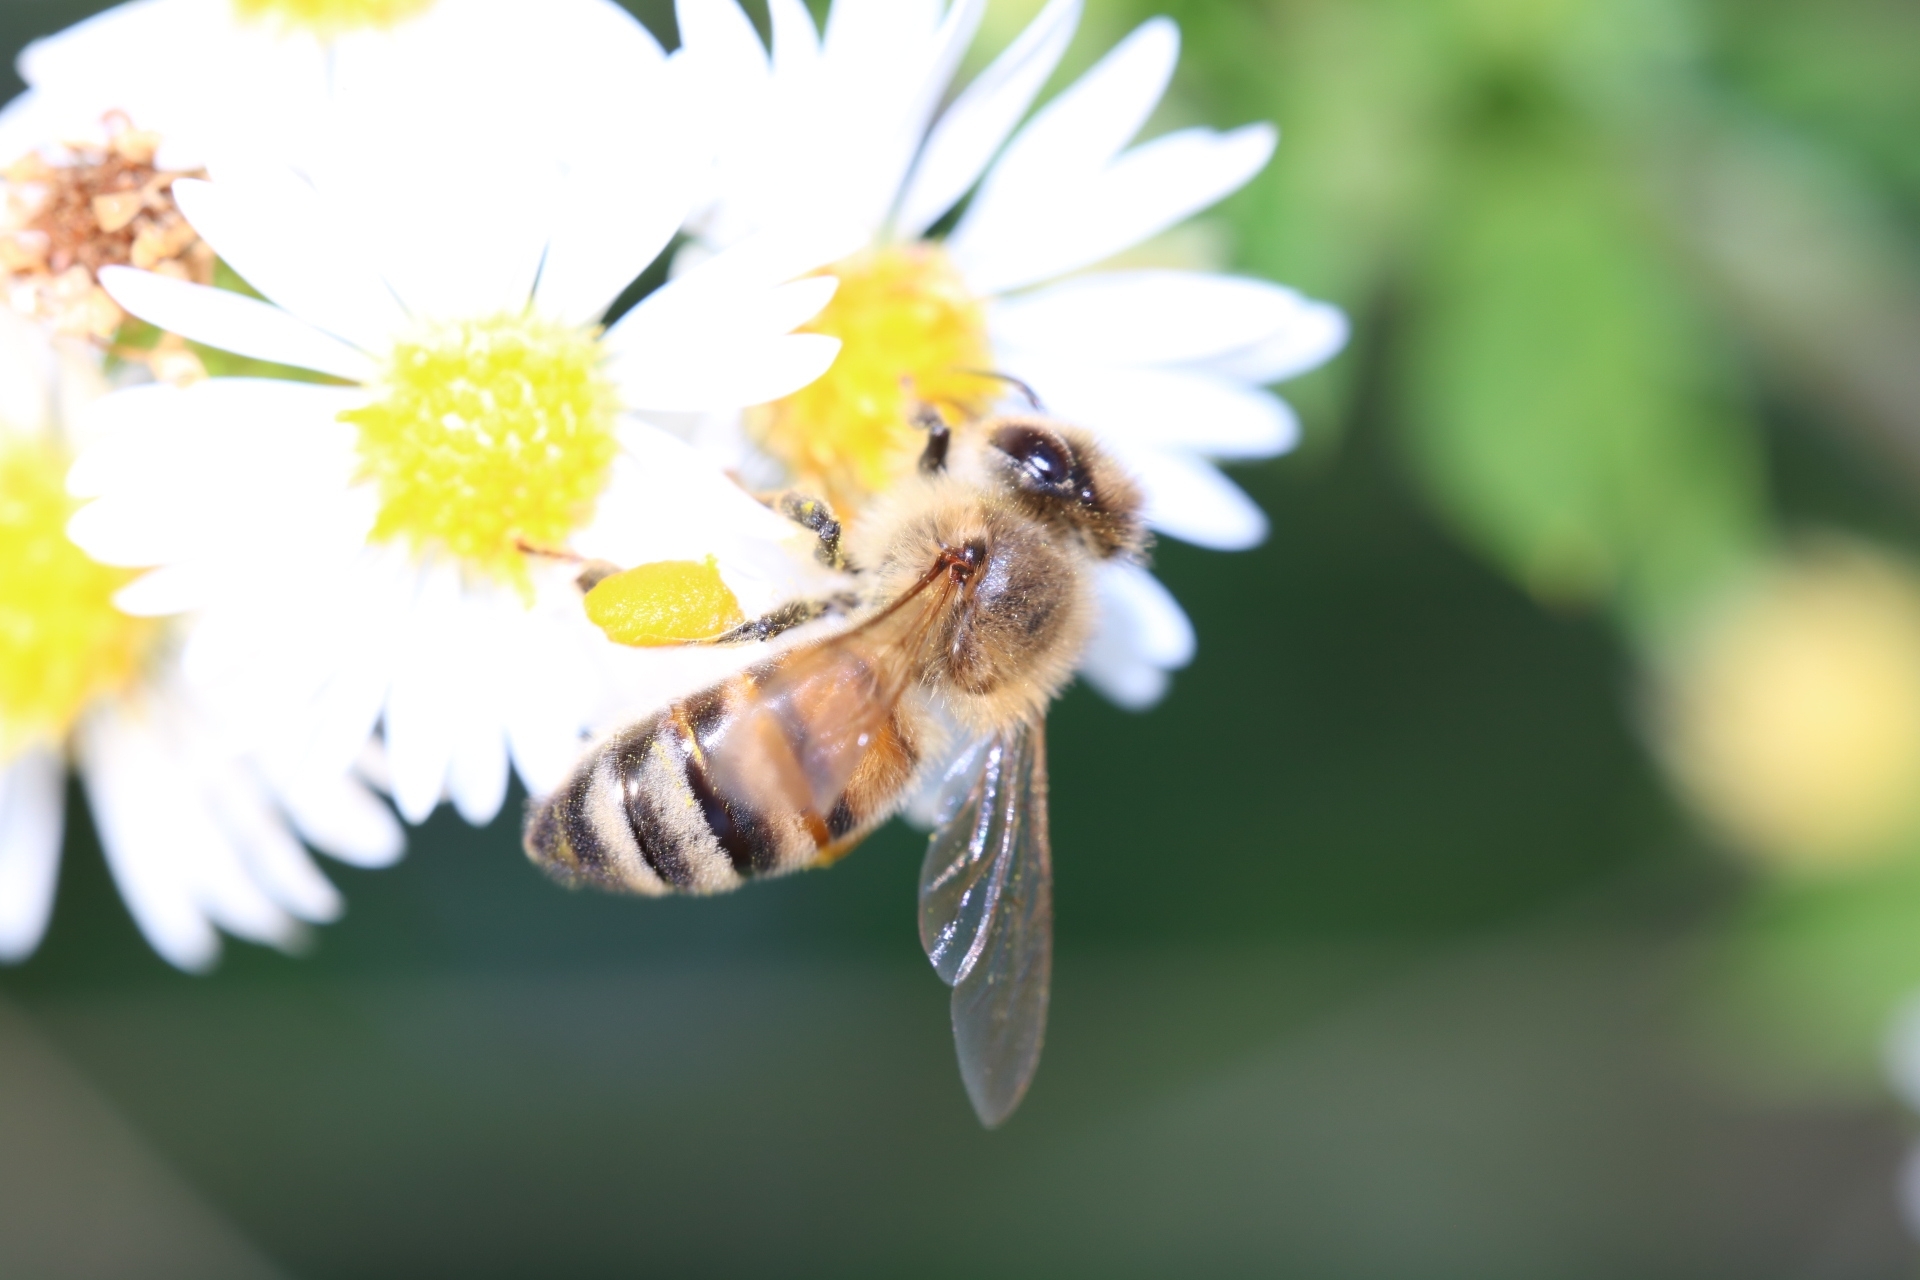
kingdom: Animalia
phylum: Arthropoda
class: Insecta
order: Hymenoptera
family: Apidae
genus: Apis
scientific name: Apis mellifera
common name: Honey bee
